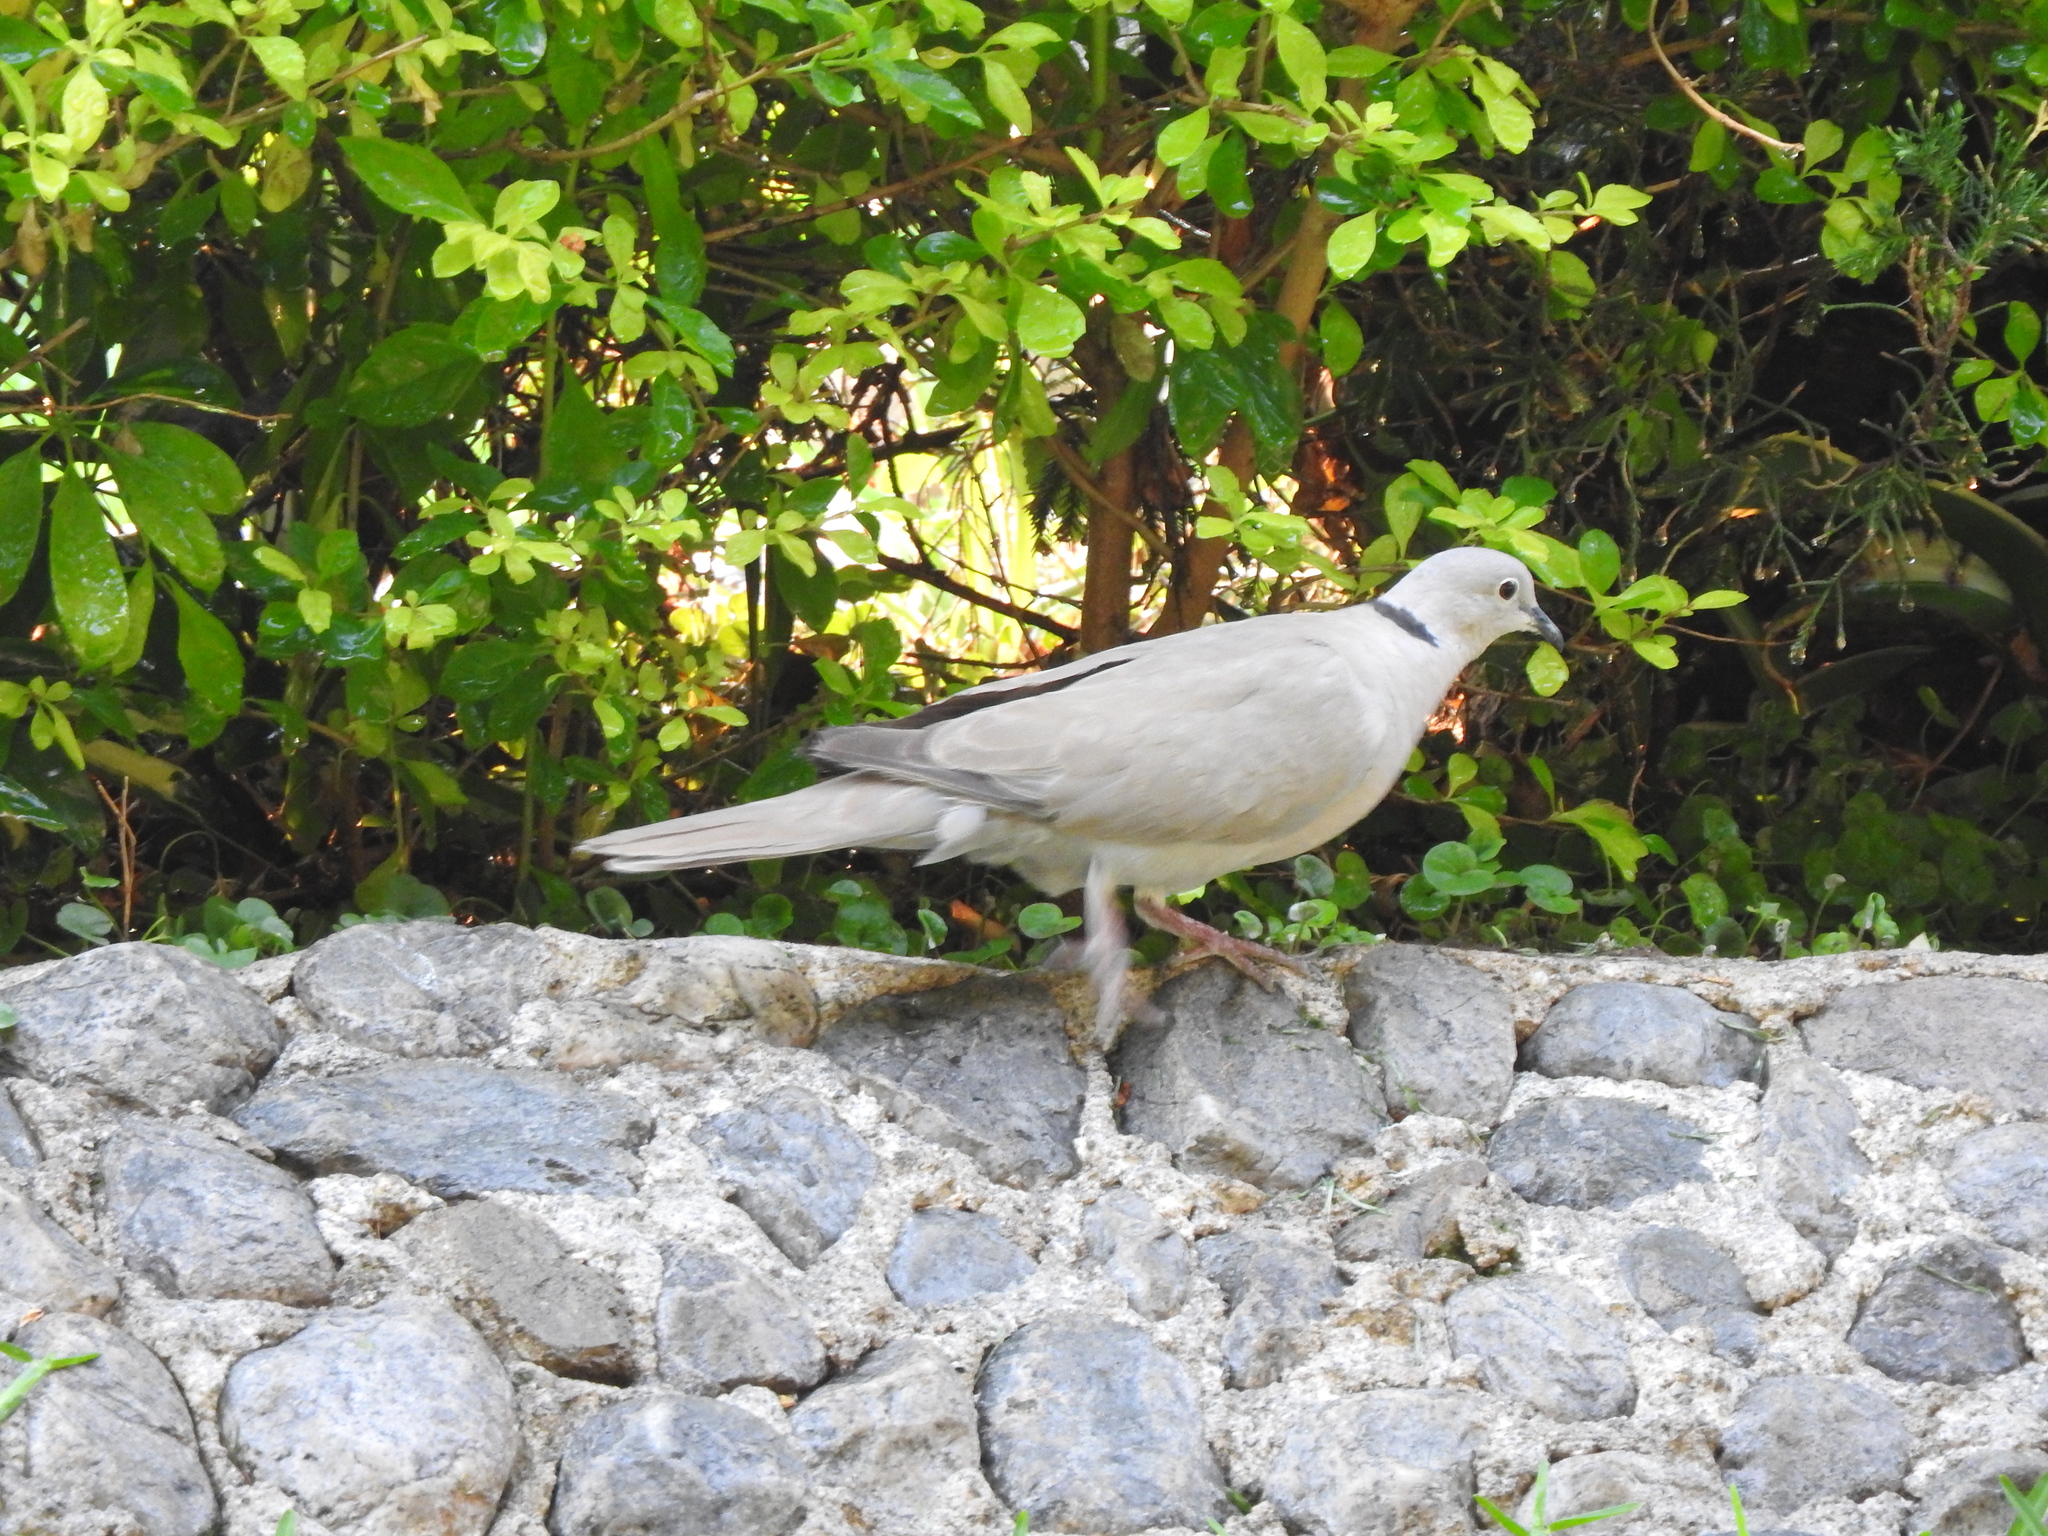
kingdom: Animalia
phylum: Chordata
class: Aves
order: Columbiformes
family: Columbidae
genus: Streptopelia
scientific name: Streptopelia decaocto
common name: Eurasian collared dove
